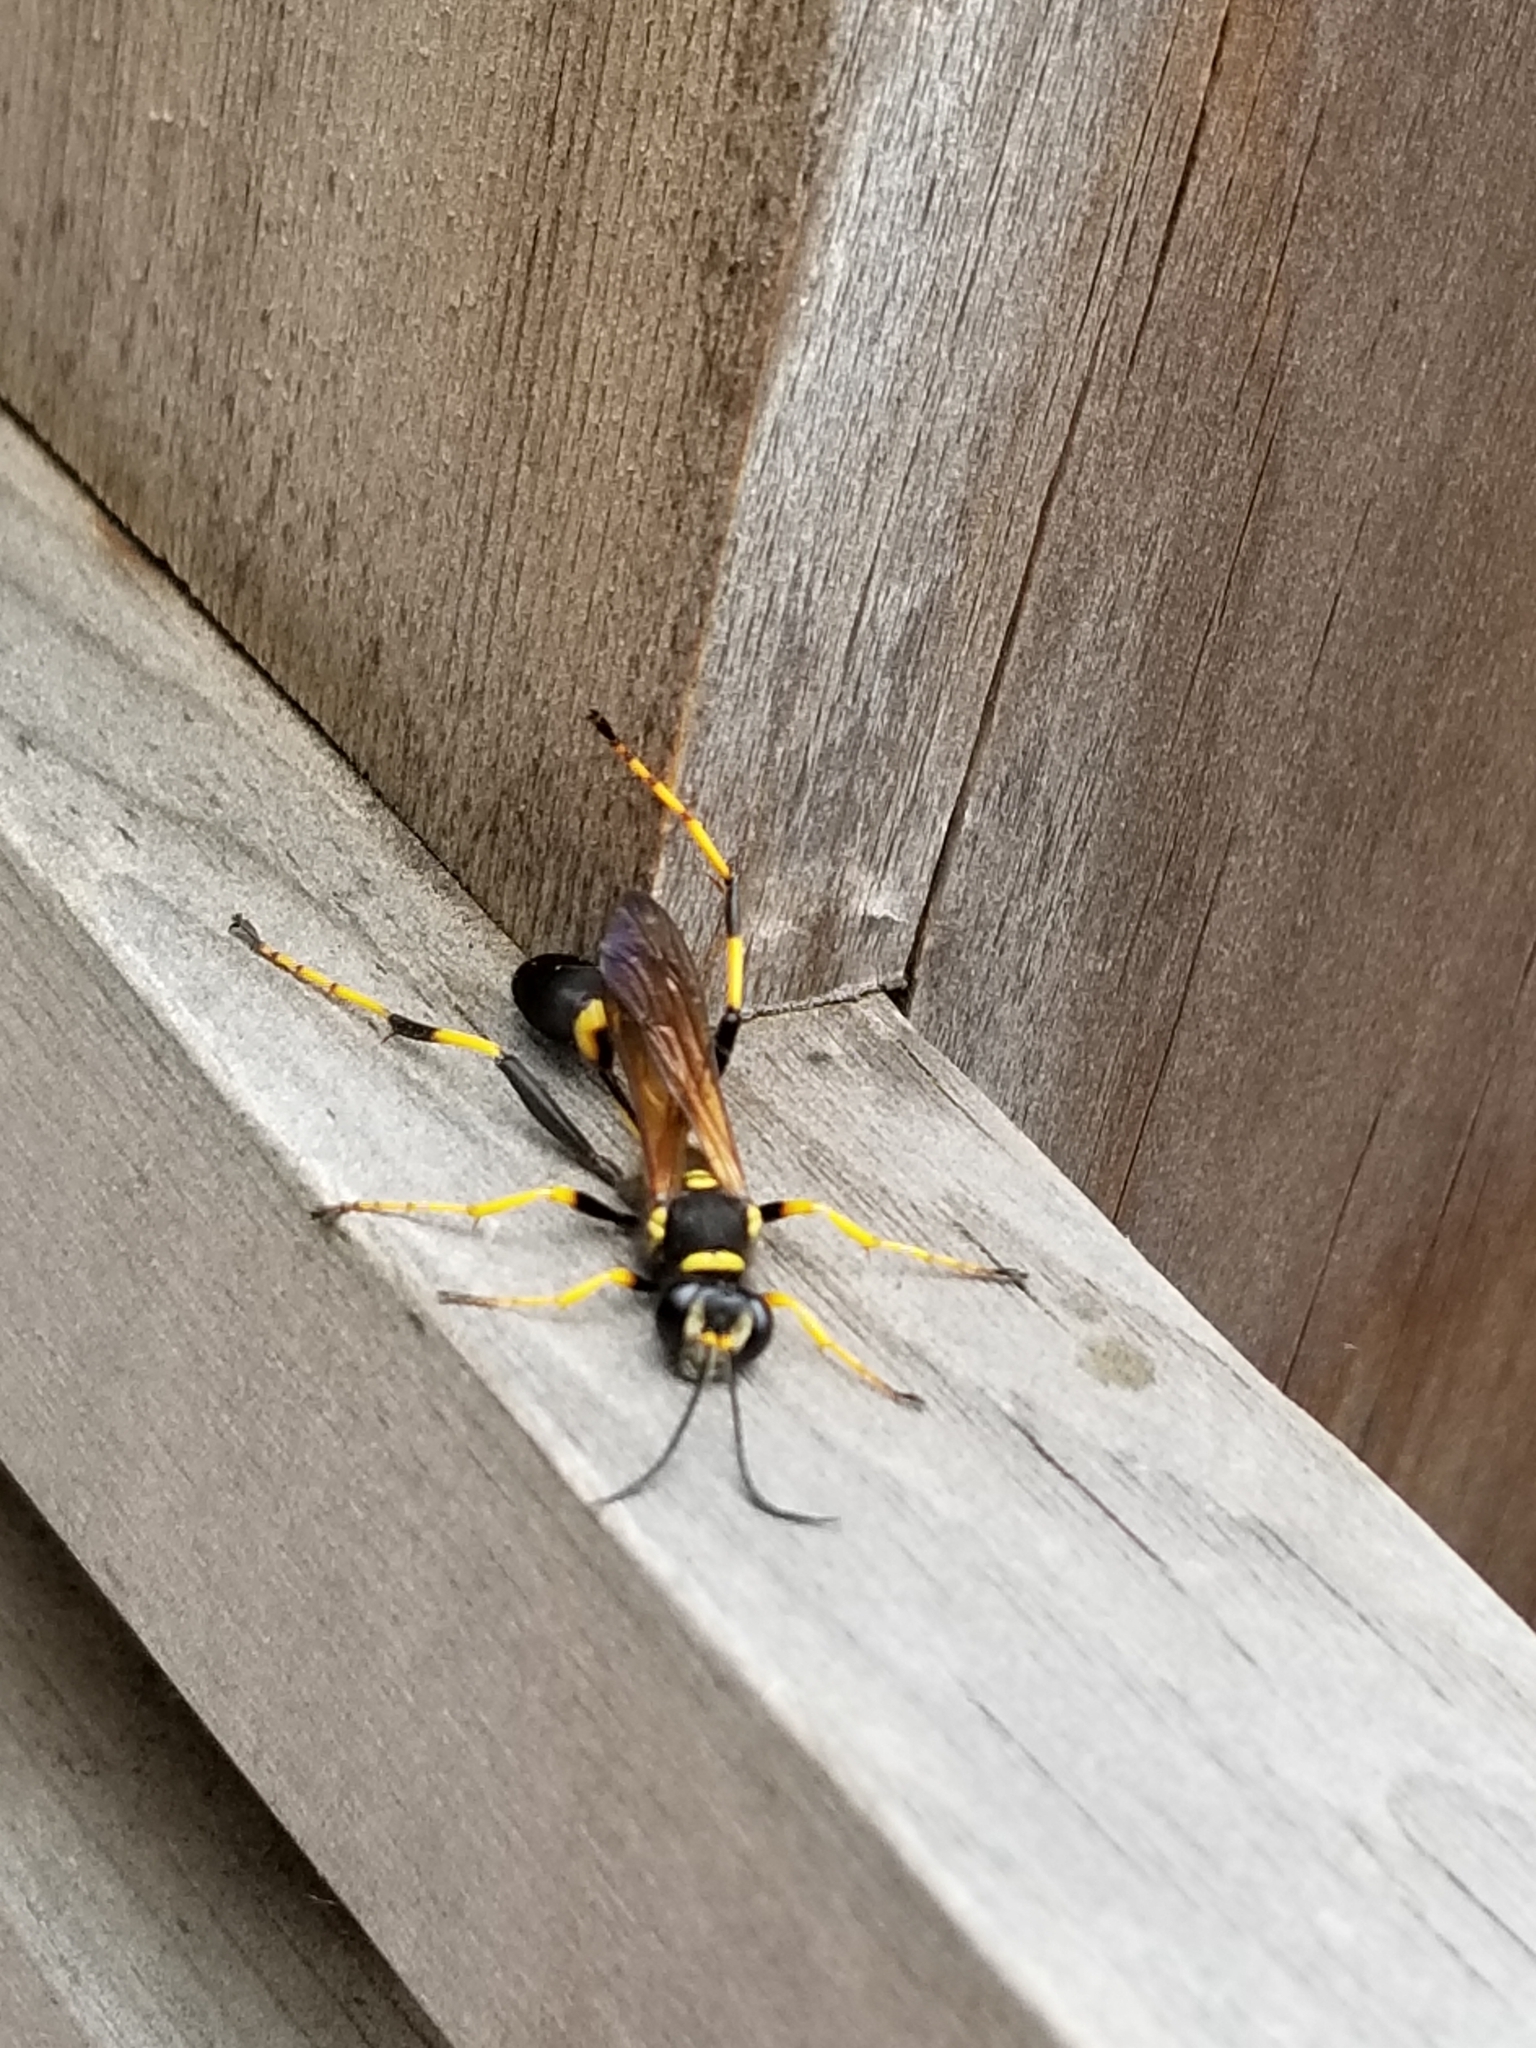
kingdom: Animalia
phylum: Arthropoda
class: Insecta
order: Hymenoptera
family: Sphecidae
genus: Sceliphron
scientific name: Sceliphron caementarium
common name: Mud dauber
